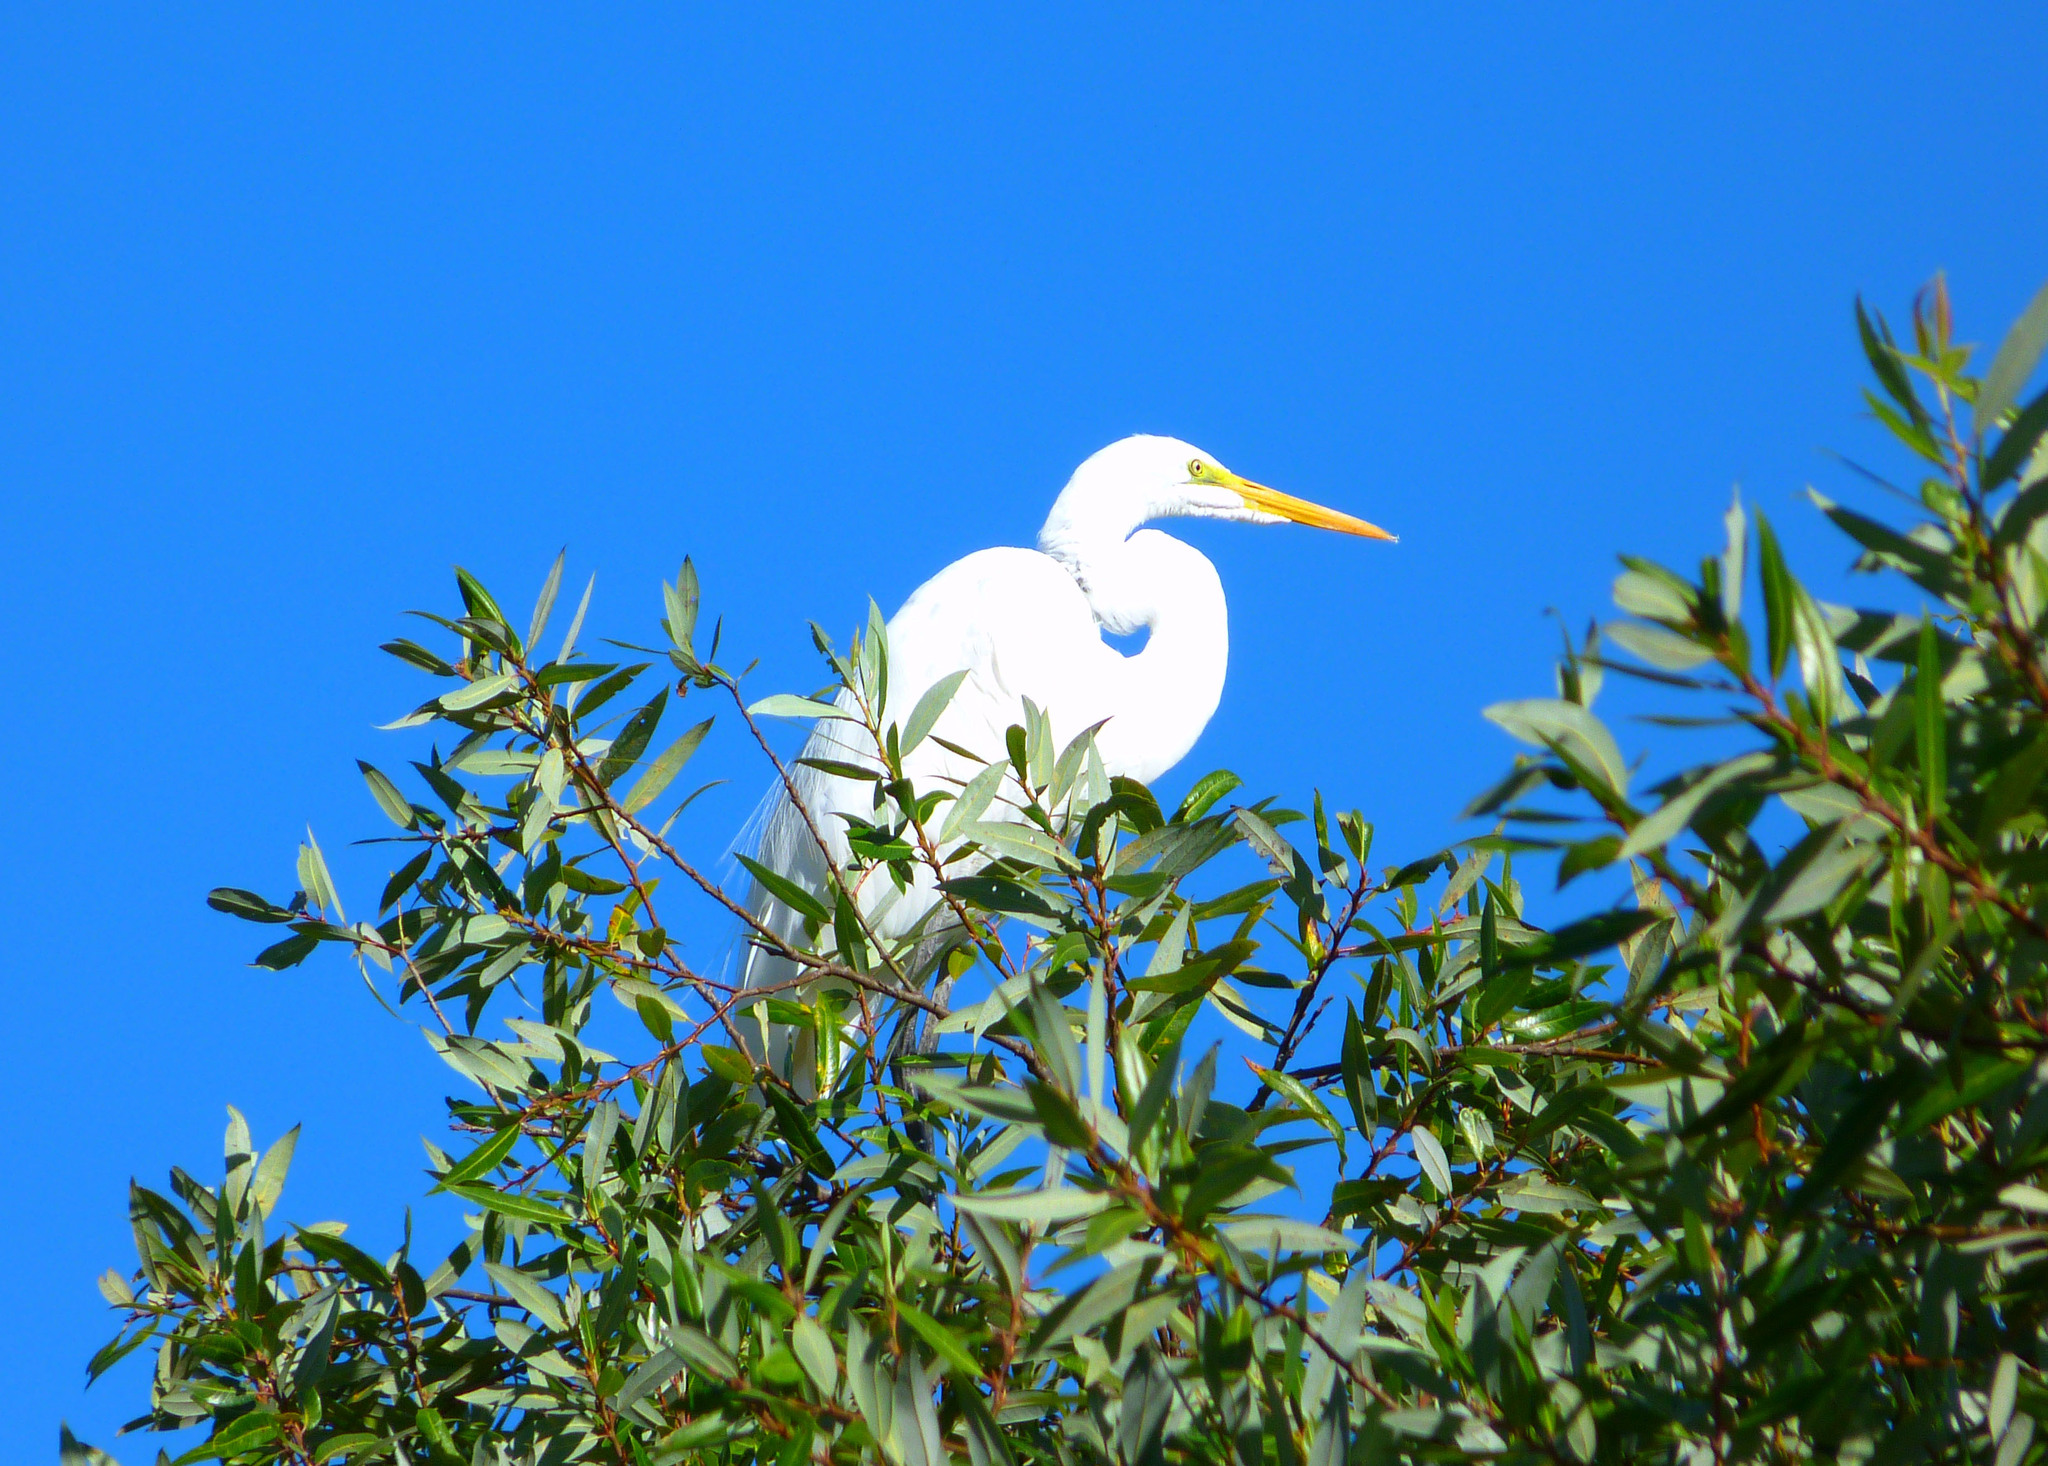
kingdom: Animalia
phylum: Chordata
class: Aves
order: Pelecaniformes
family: Ardeidae
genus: Ardea
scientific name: Ardea alba
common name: Great egret
